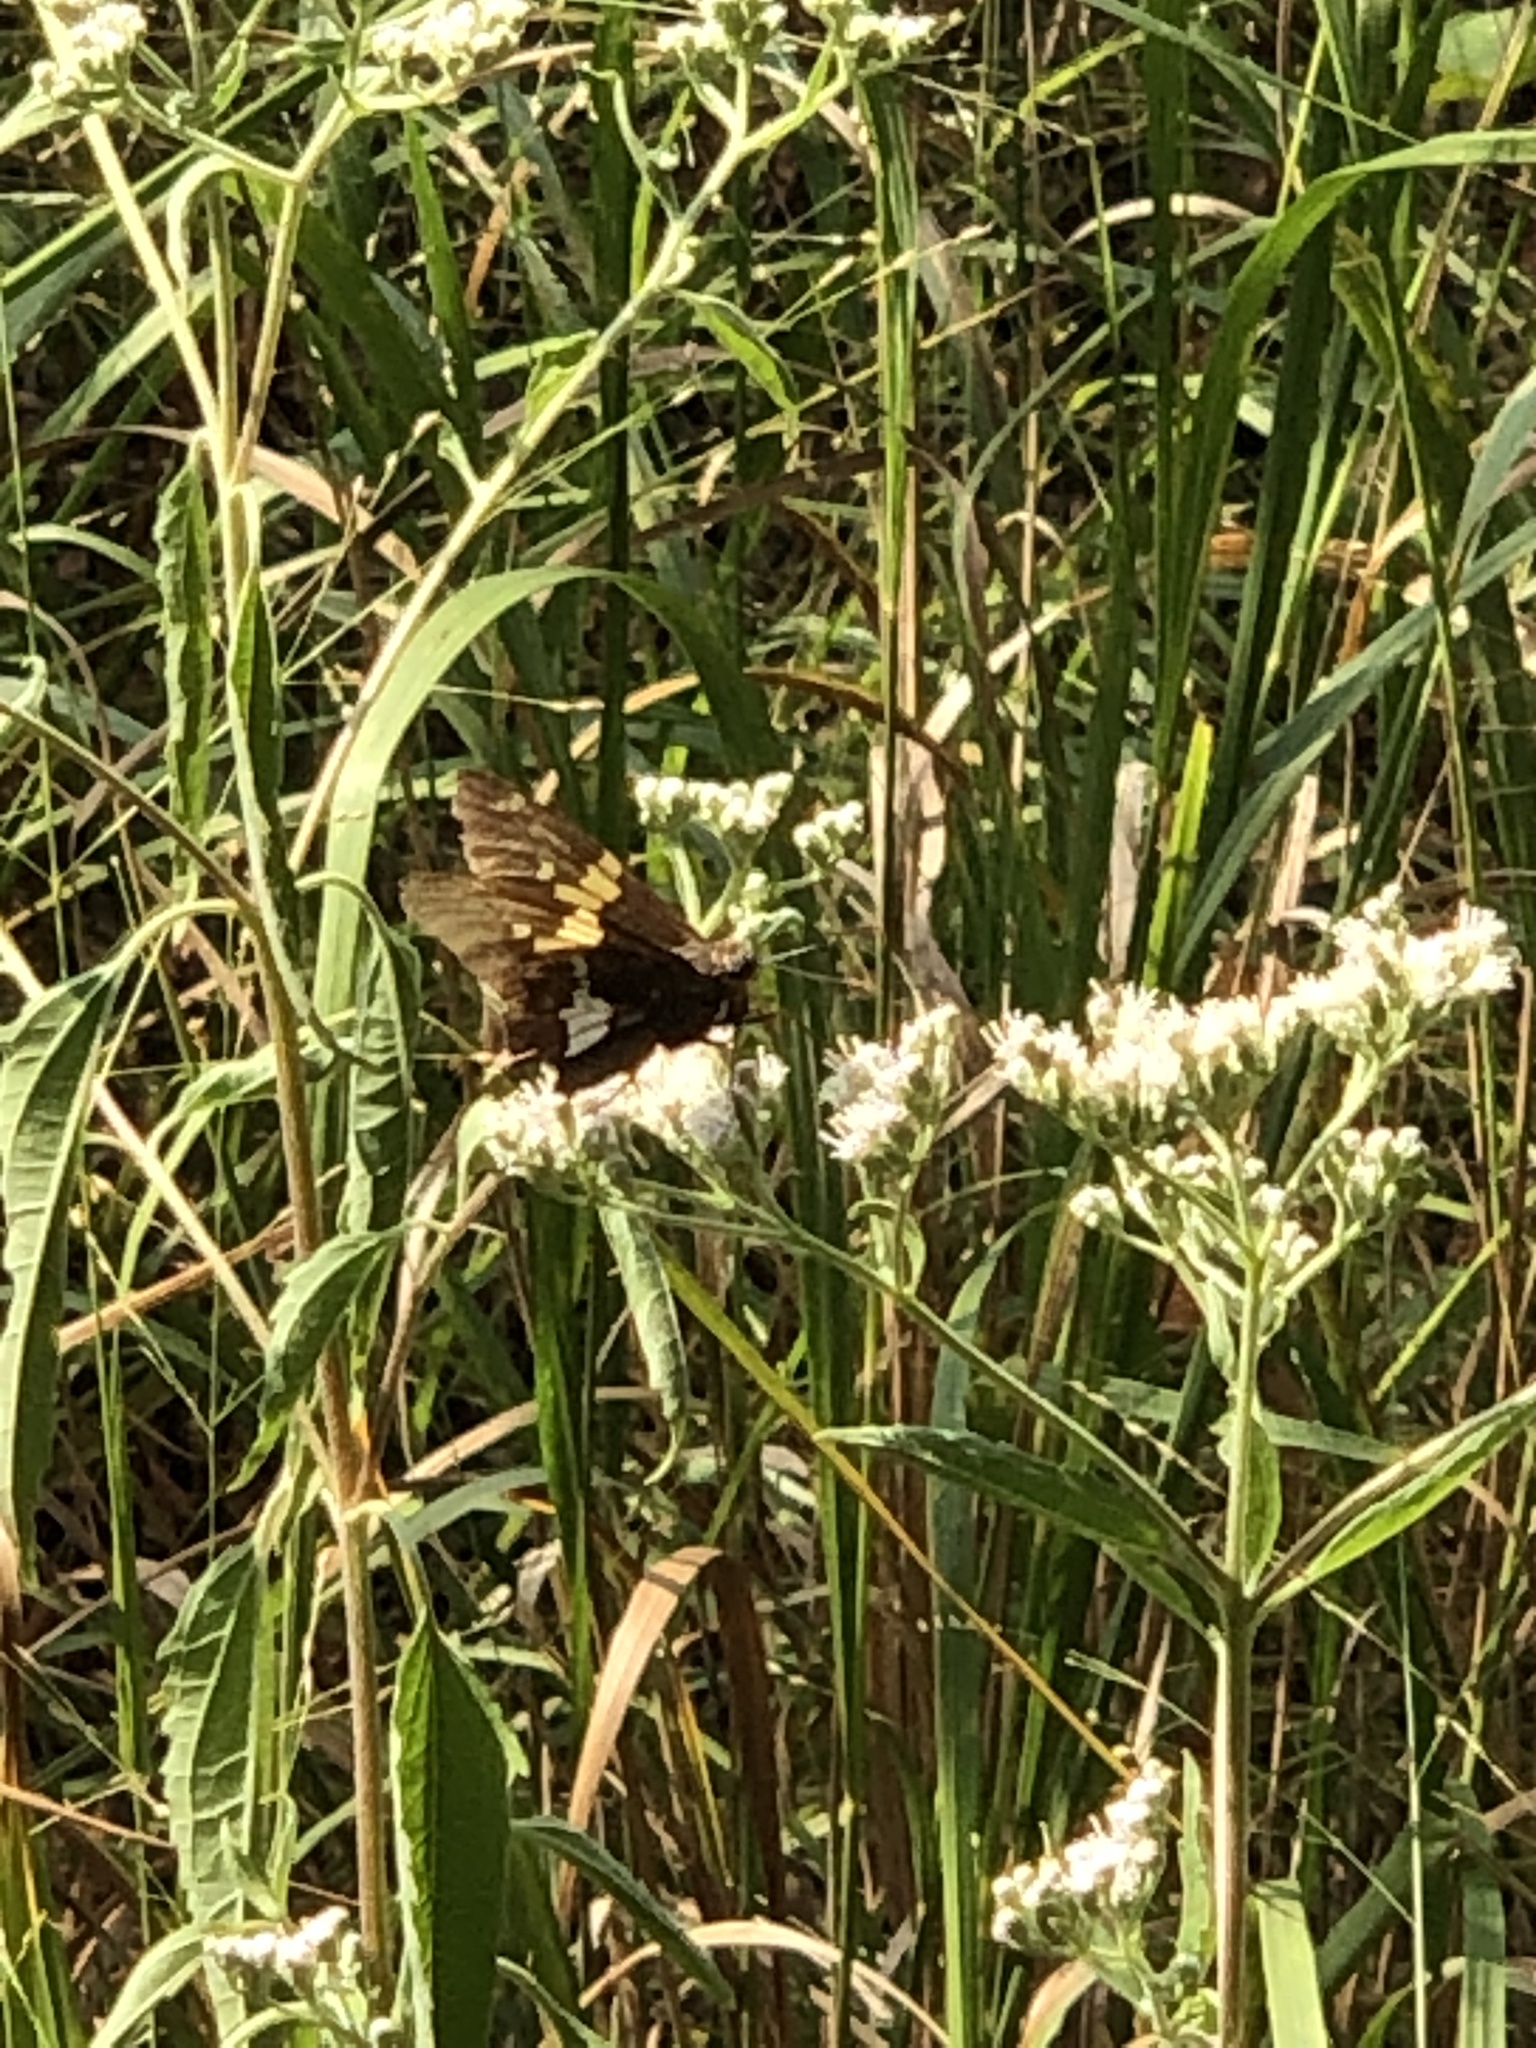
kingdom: Animalia
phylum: Arthropoda
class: Insecta
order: Lepidoptera
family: Hesperiidae
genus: Epargyreus
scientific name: Epargyreus clarus
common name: Silver-spotted skipper
